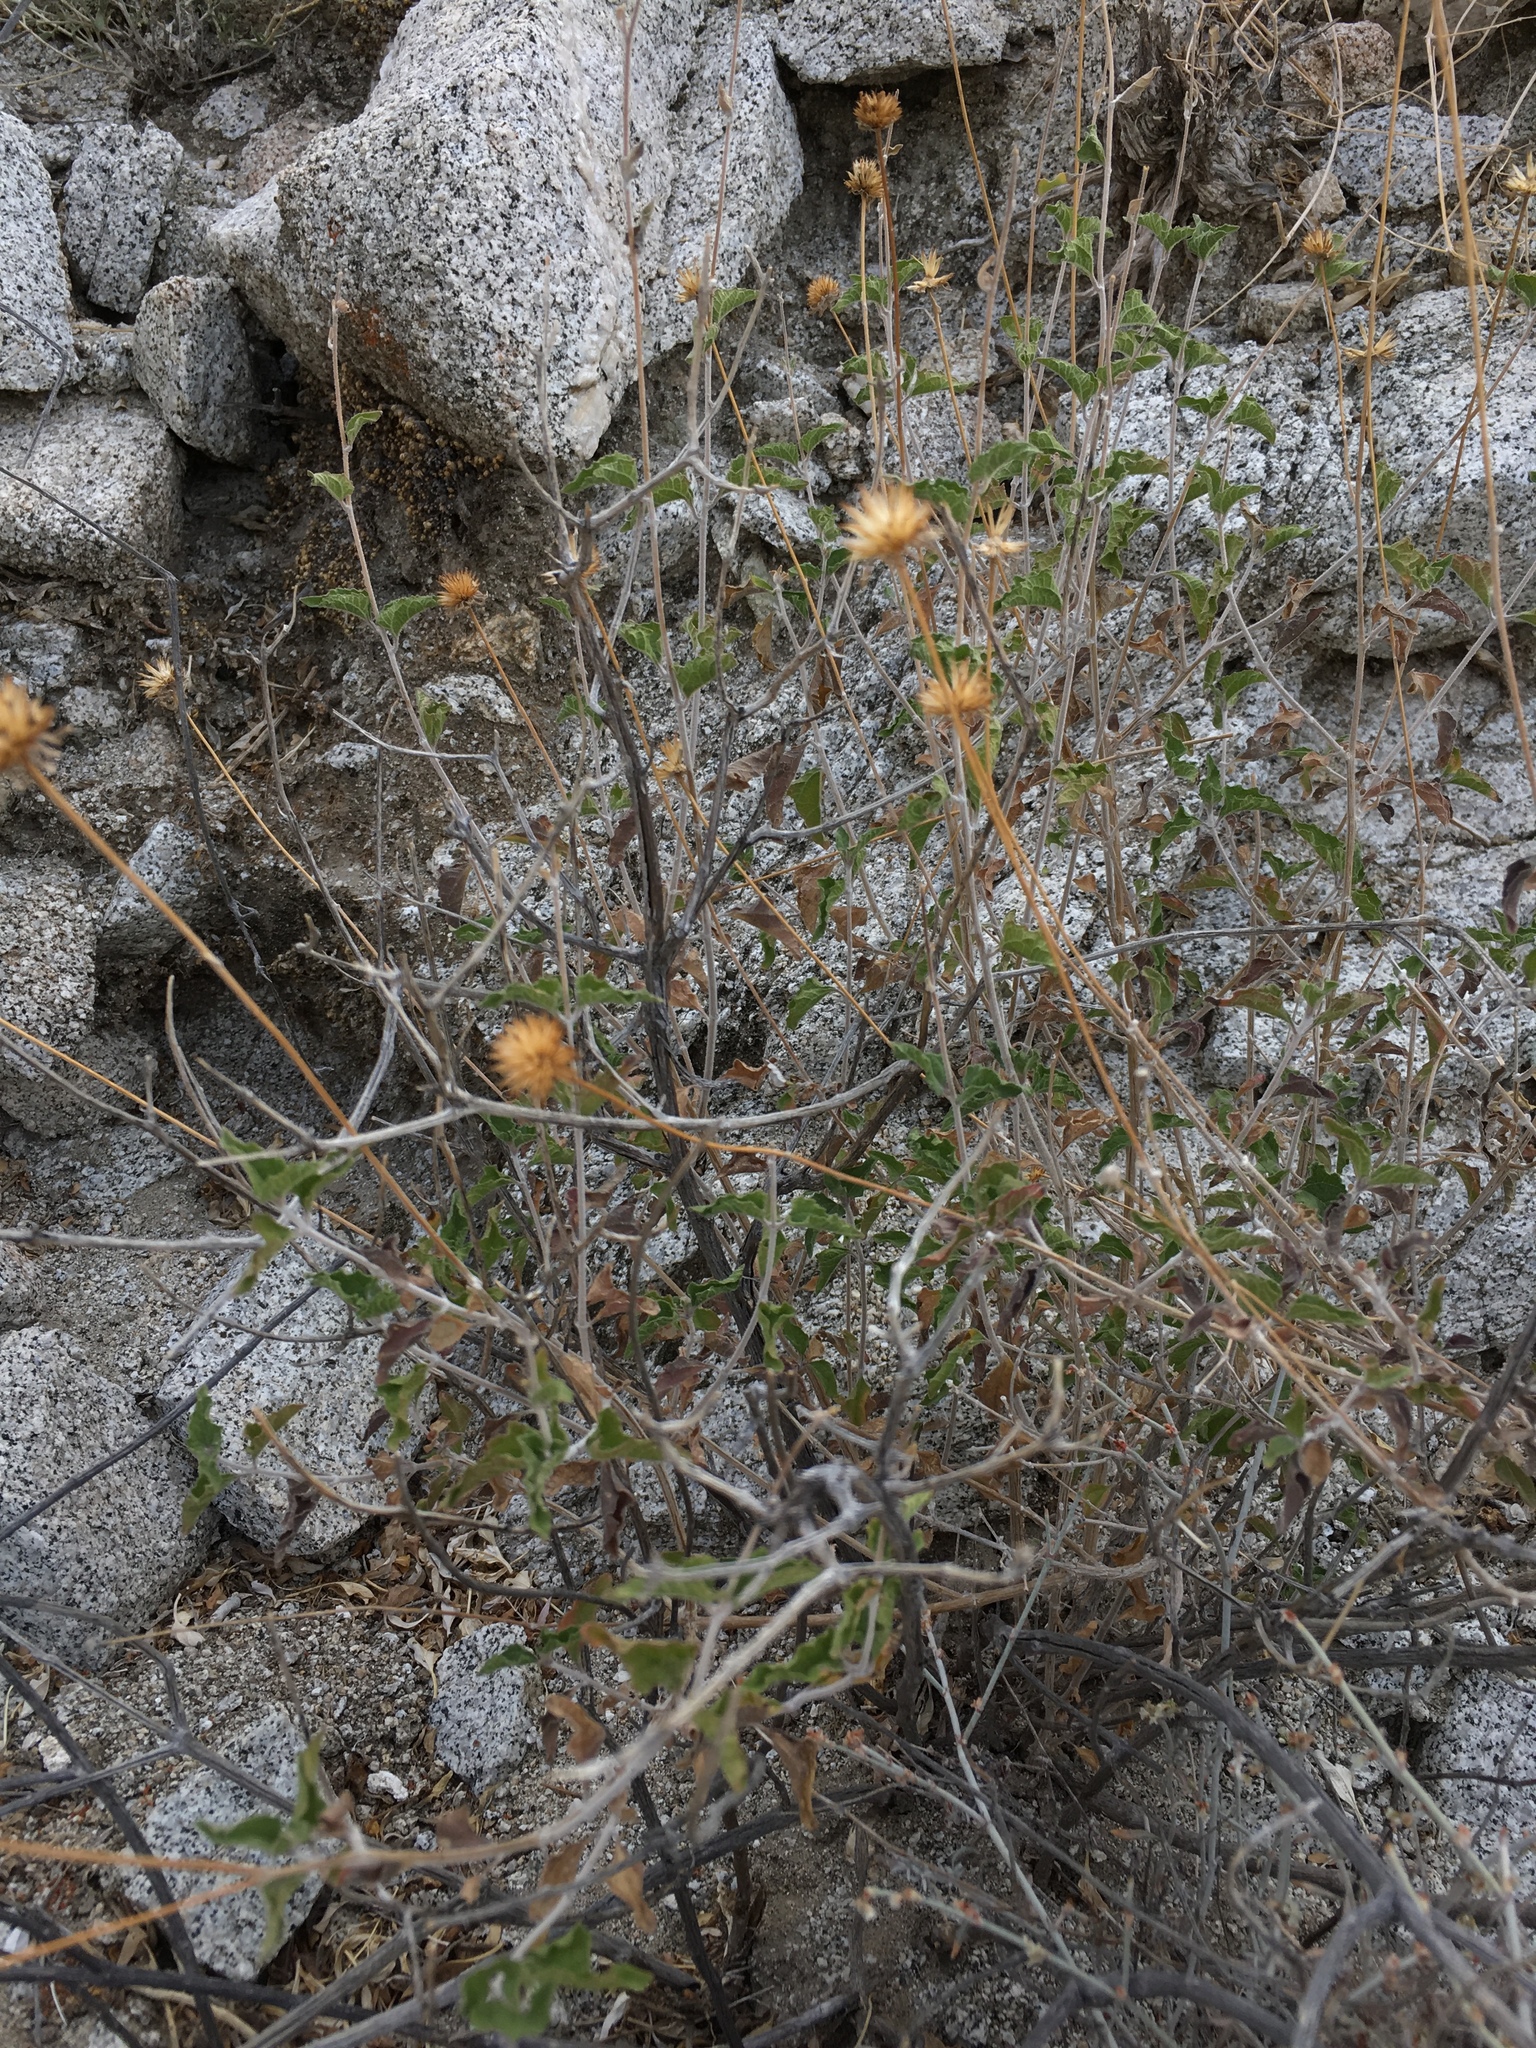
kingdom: Plantae
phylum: Tracheophyta
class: Magnoliopsida
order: Asterales
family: Asteraceae
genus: Bahiopsis
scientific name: Bahiopsis parishii
